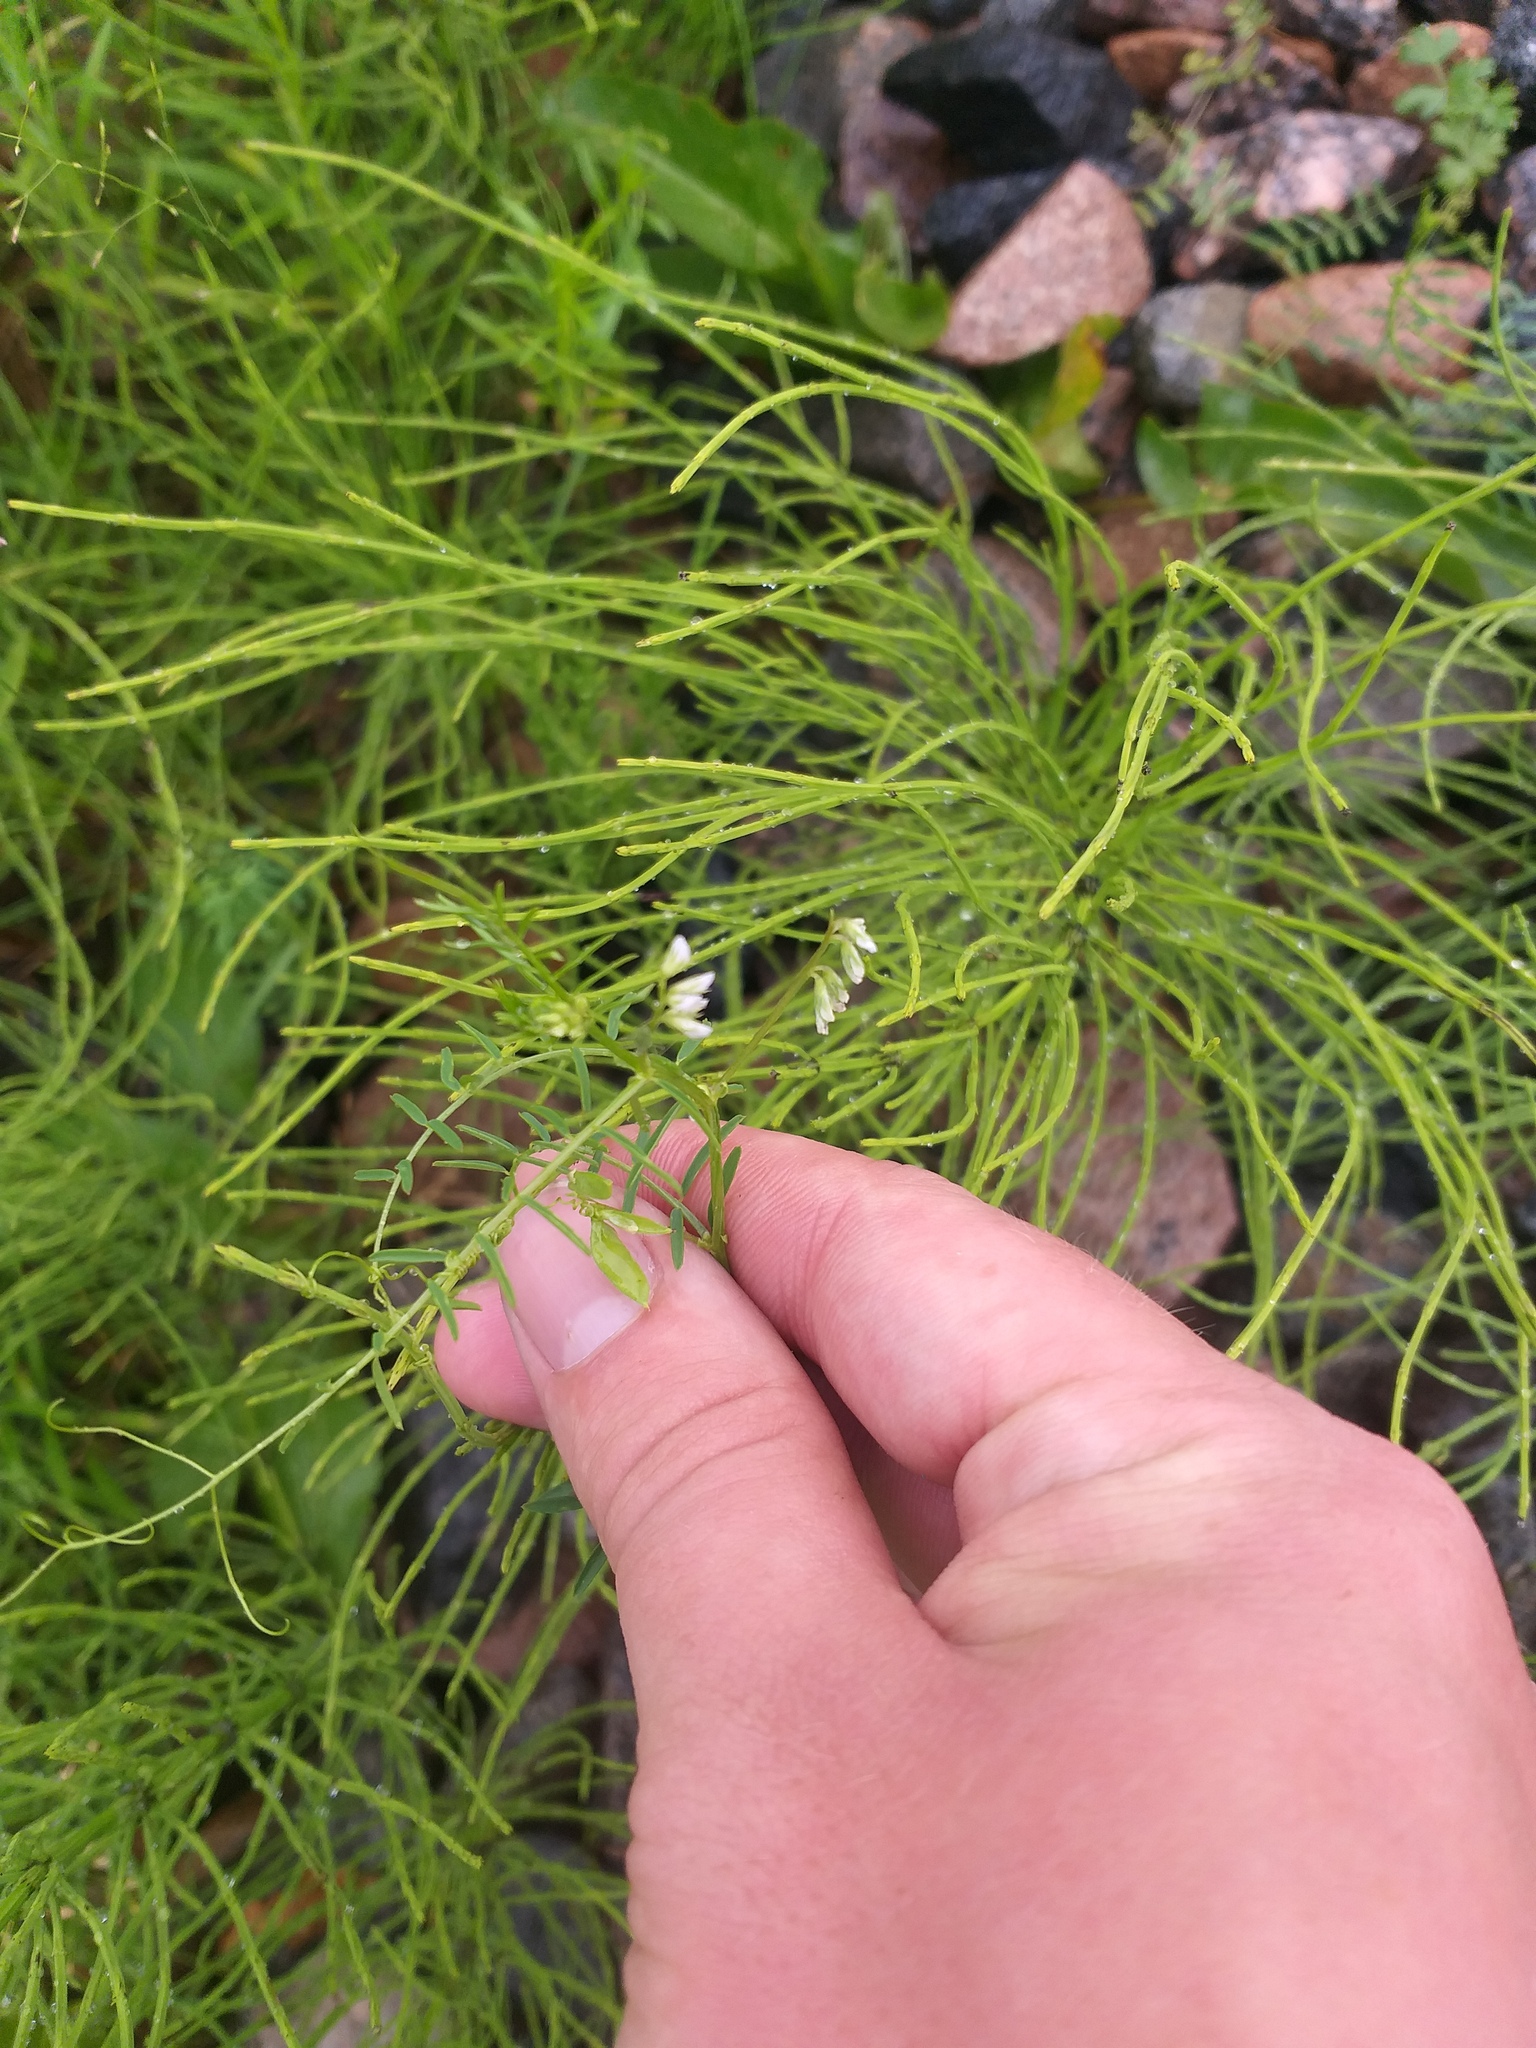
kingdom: Plantae
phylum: Tracheophyta
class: Magnoliopsida
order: Fabales
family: Fabaceae
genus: Vicia
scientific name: Vicia hirsuta
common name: Tiny vetch
